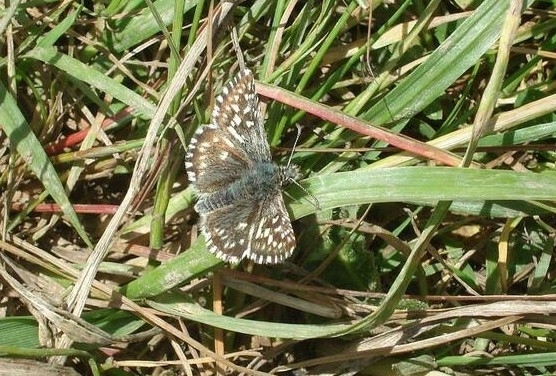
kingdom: Animalia
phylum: Arthropoda
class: Insecta
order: Lepidoptera
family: Hesperiidae
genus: Pyrgus
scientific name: Pyrgus malvae
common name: Grizzled skipper
